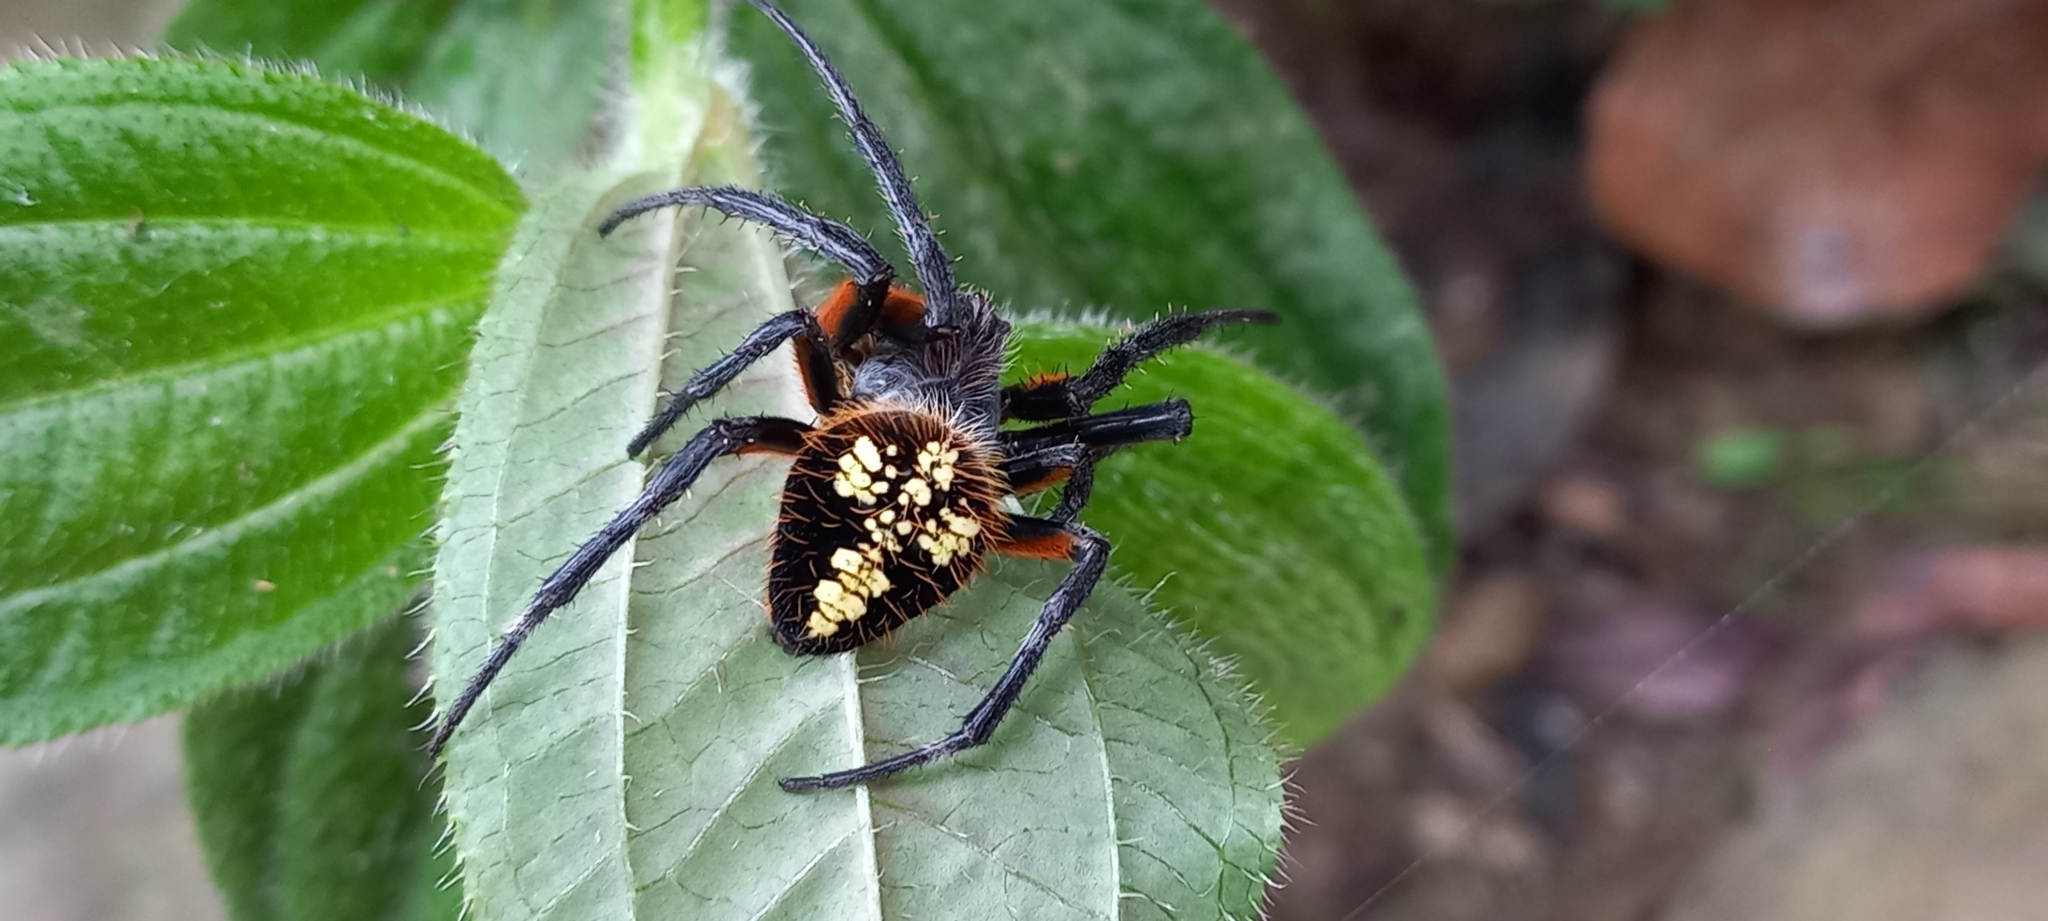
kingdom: Animalia
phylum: Arthropoda
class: Arachnida
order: Araneae
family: Araneidae
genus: Eriophora
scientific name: Eriophora fuliginea
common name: Orb weavers
